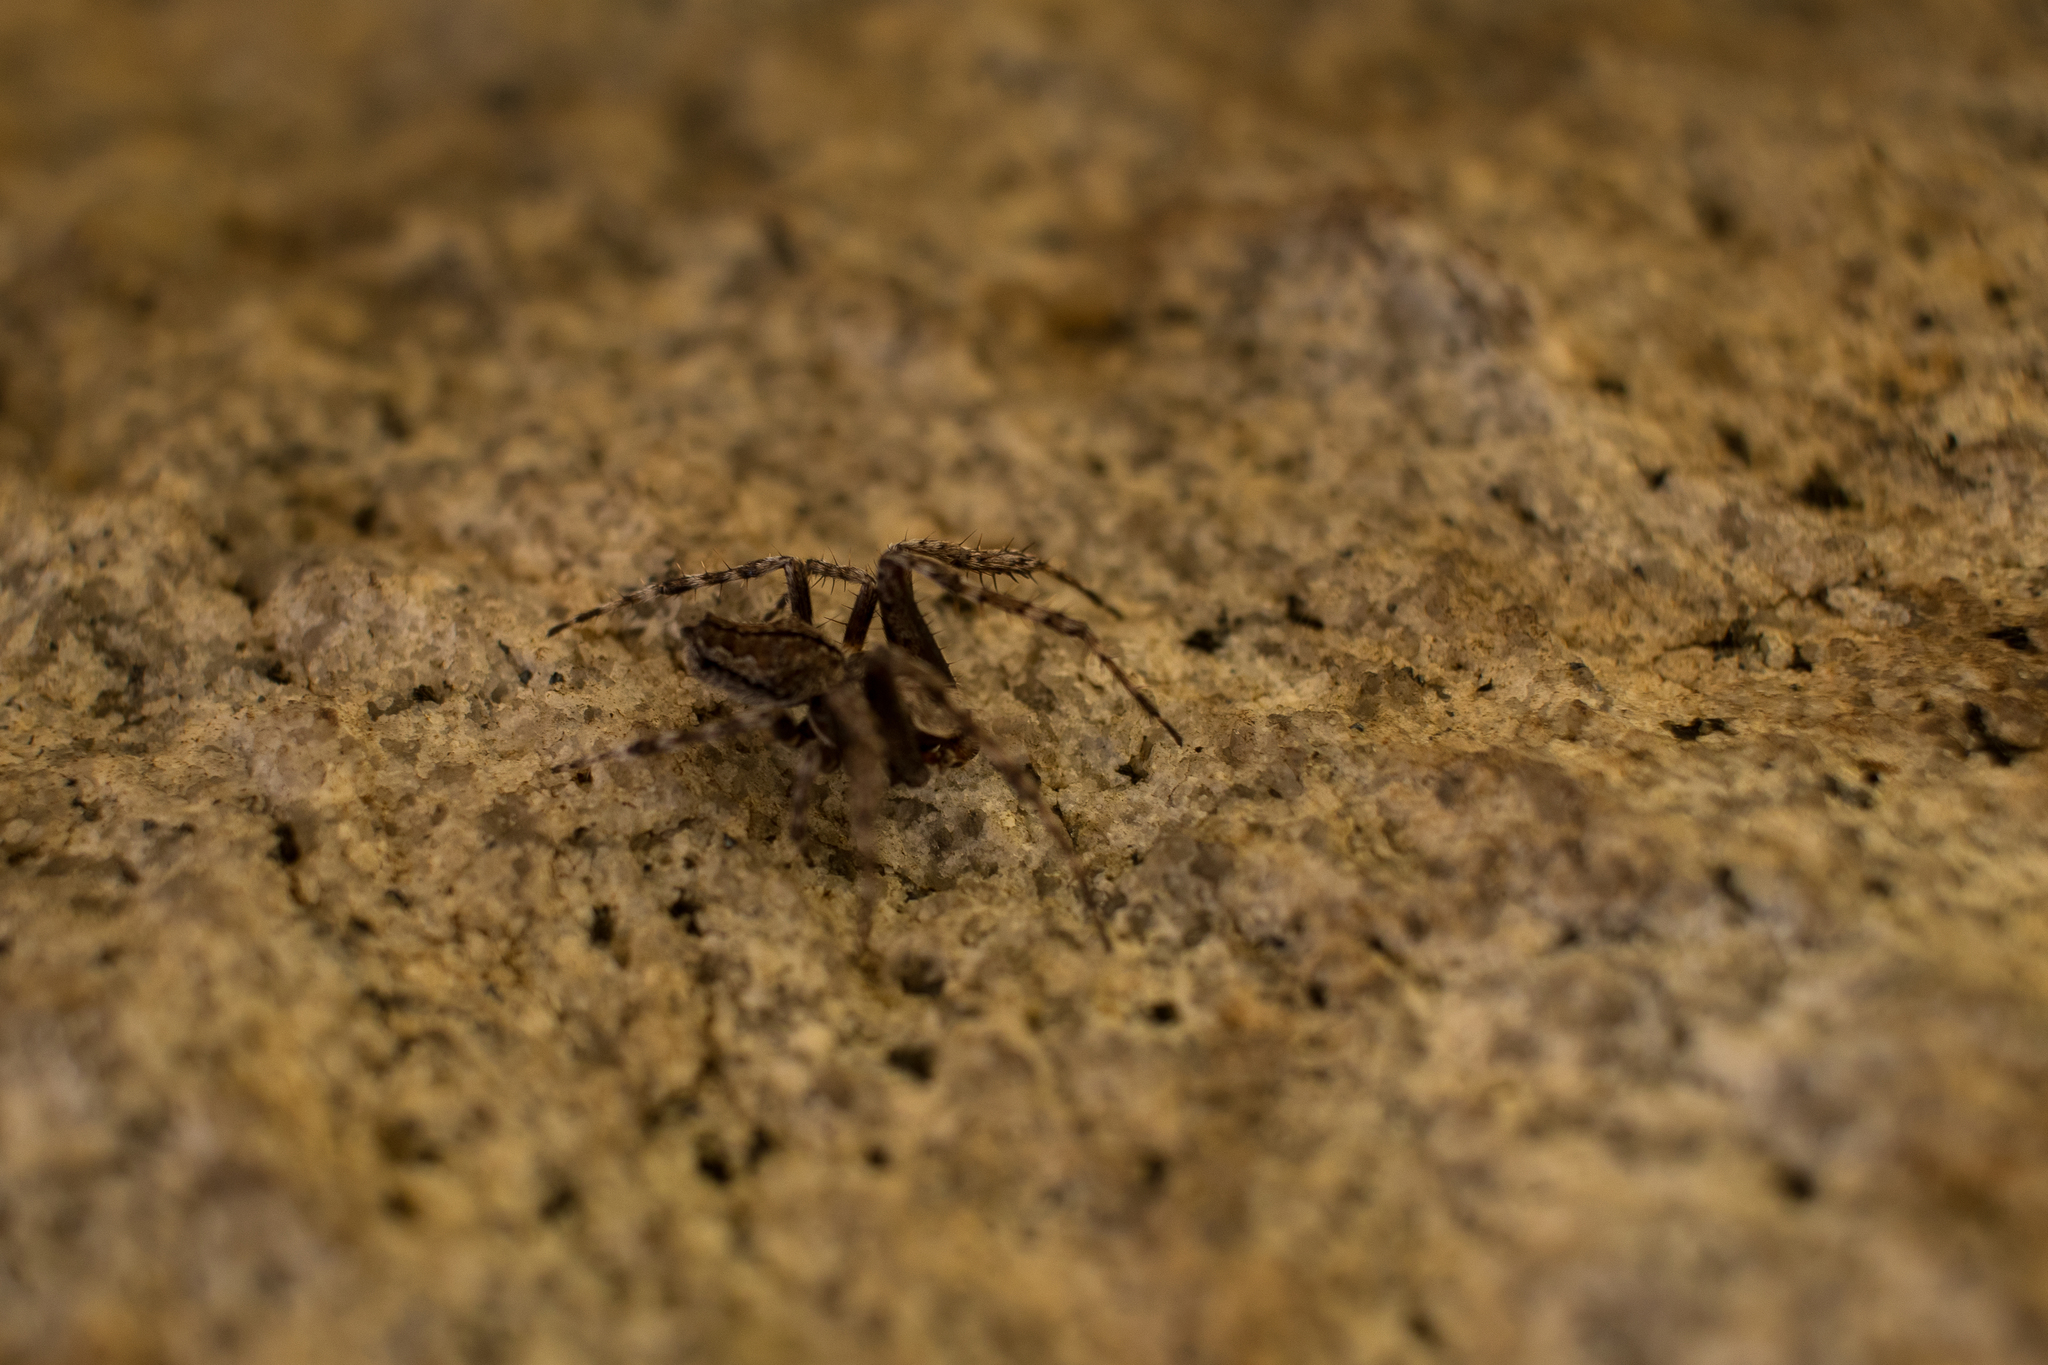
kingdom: Animalia
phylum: Arthropoda
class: Arachnida
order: Araneae
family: Araneidae
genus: Eriophora
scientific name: Eriophora pustulosa
